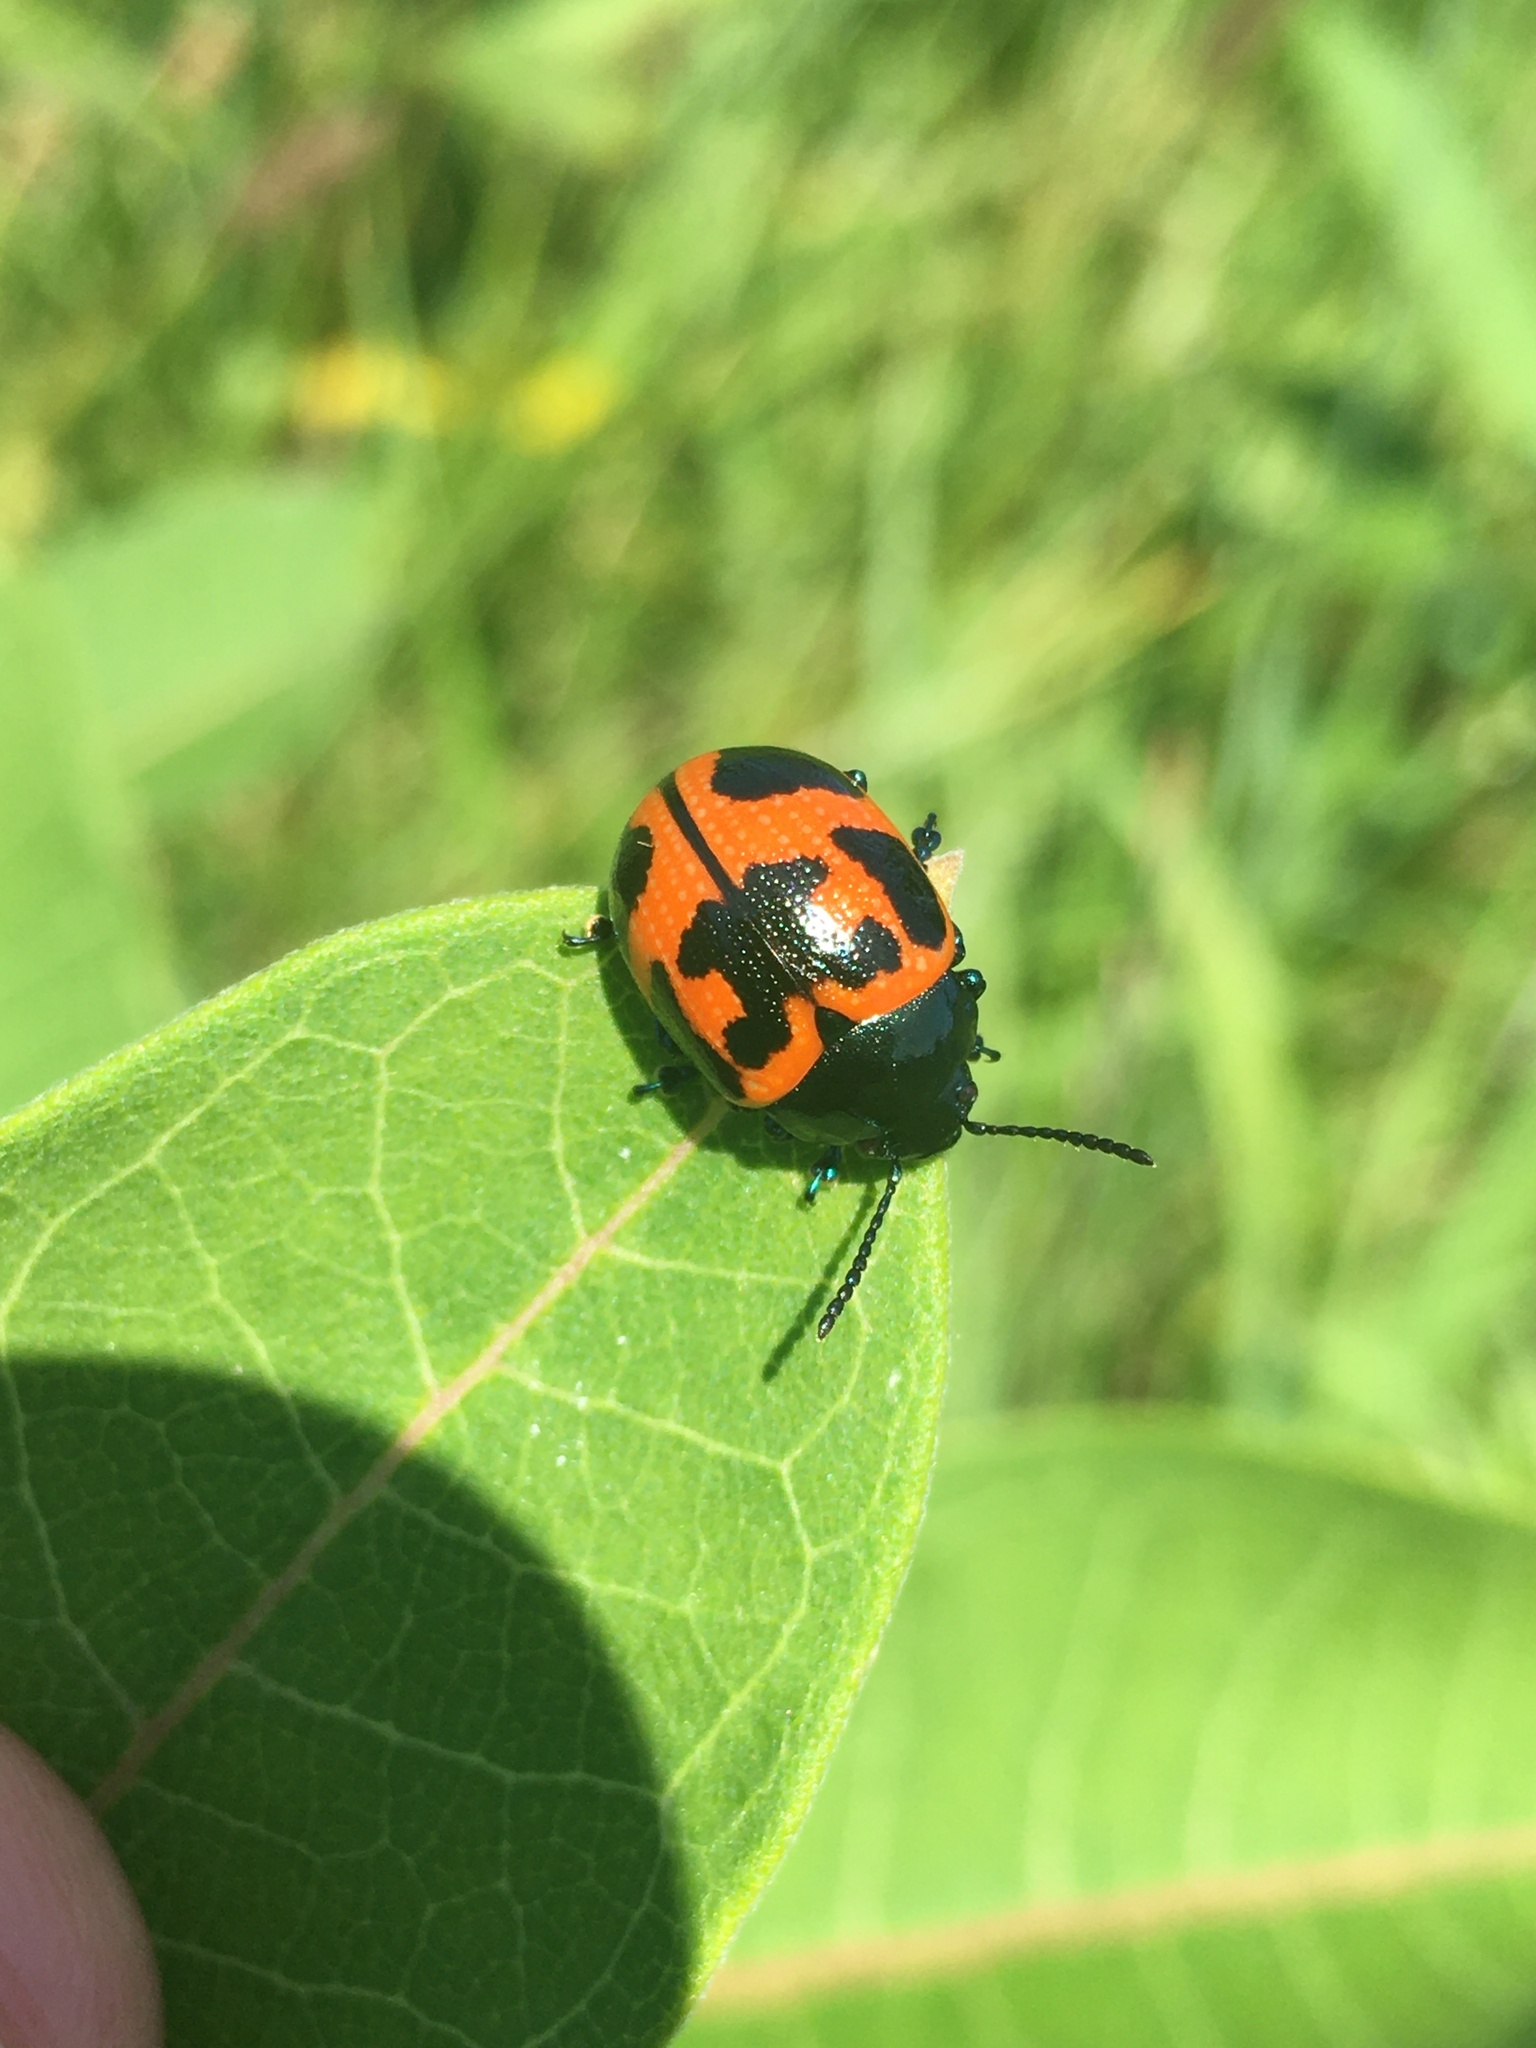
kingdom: Animalia
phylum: Arthropoda
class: Insecta
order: Coleoptera
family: Chrysomelidae
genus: Labidomera
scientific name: Labidomera clivicollis
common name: Swamp milkweed leaf beetle
